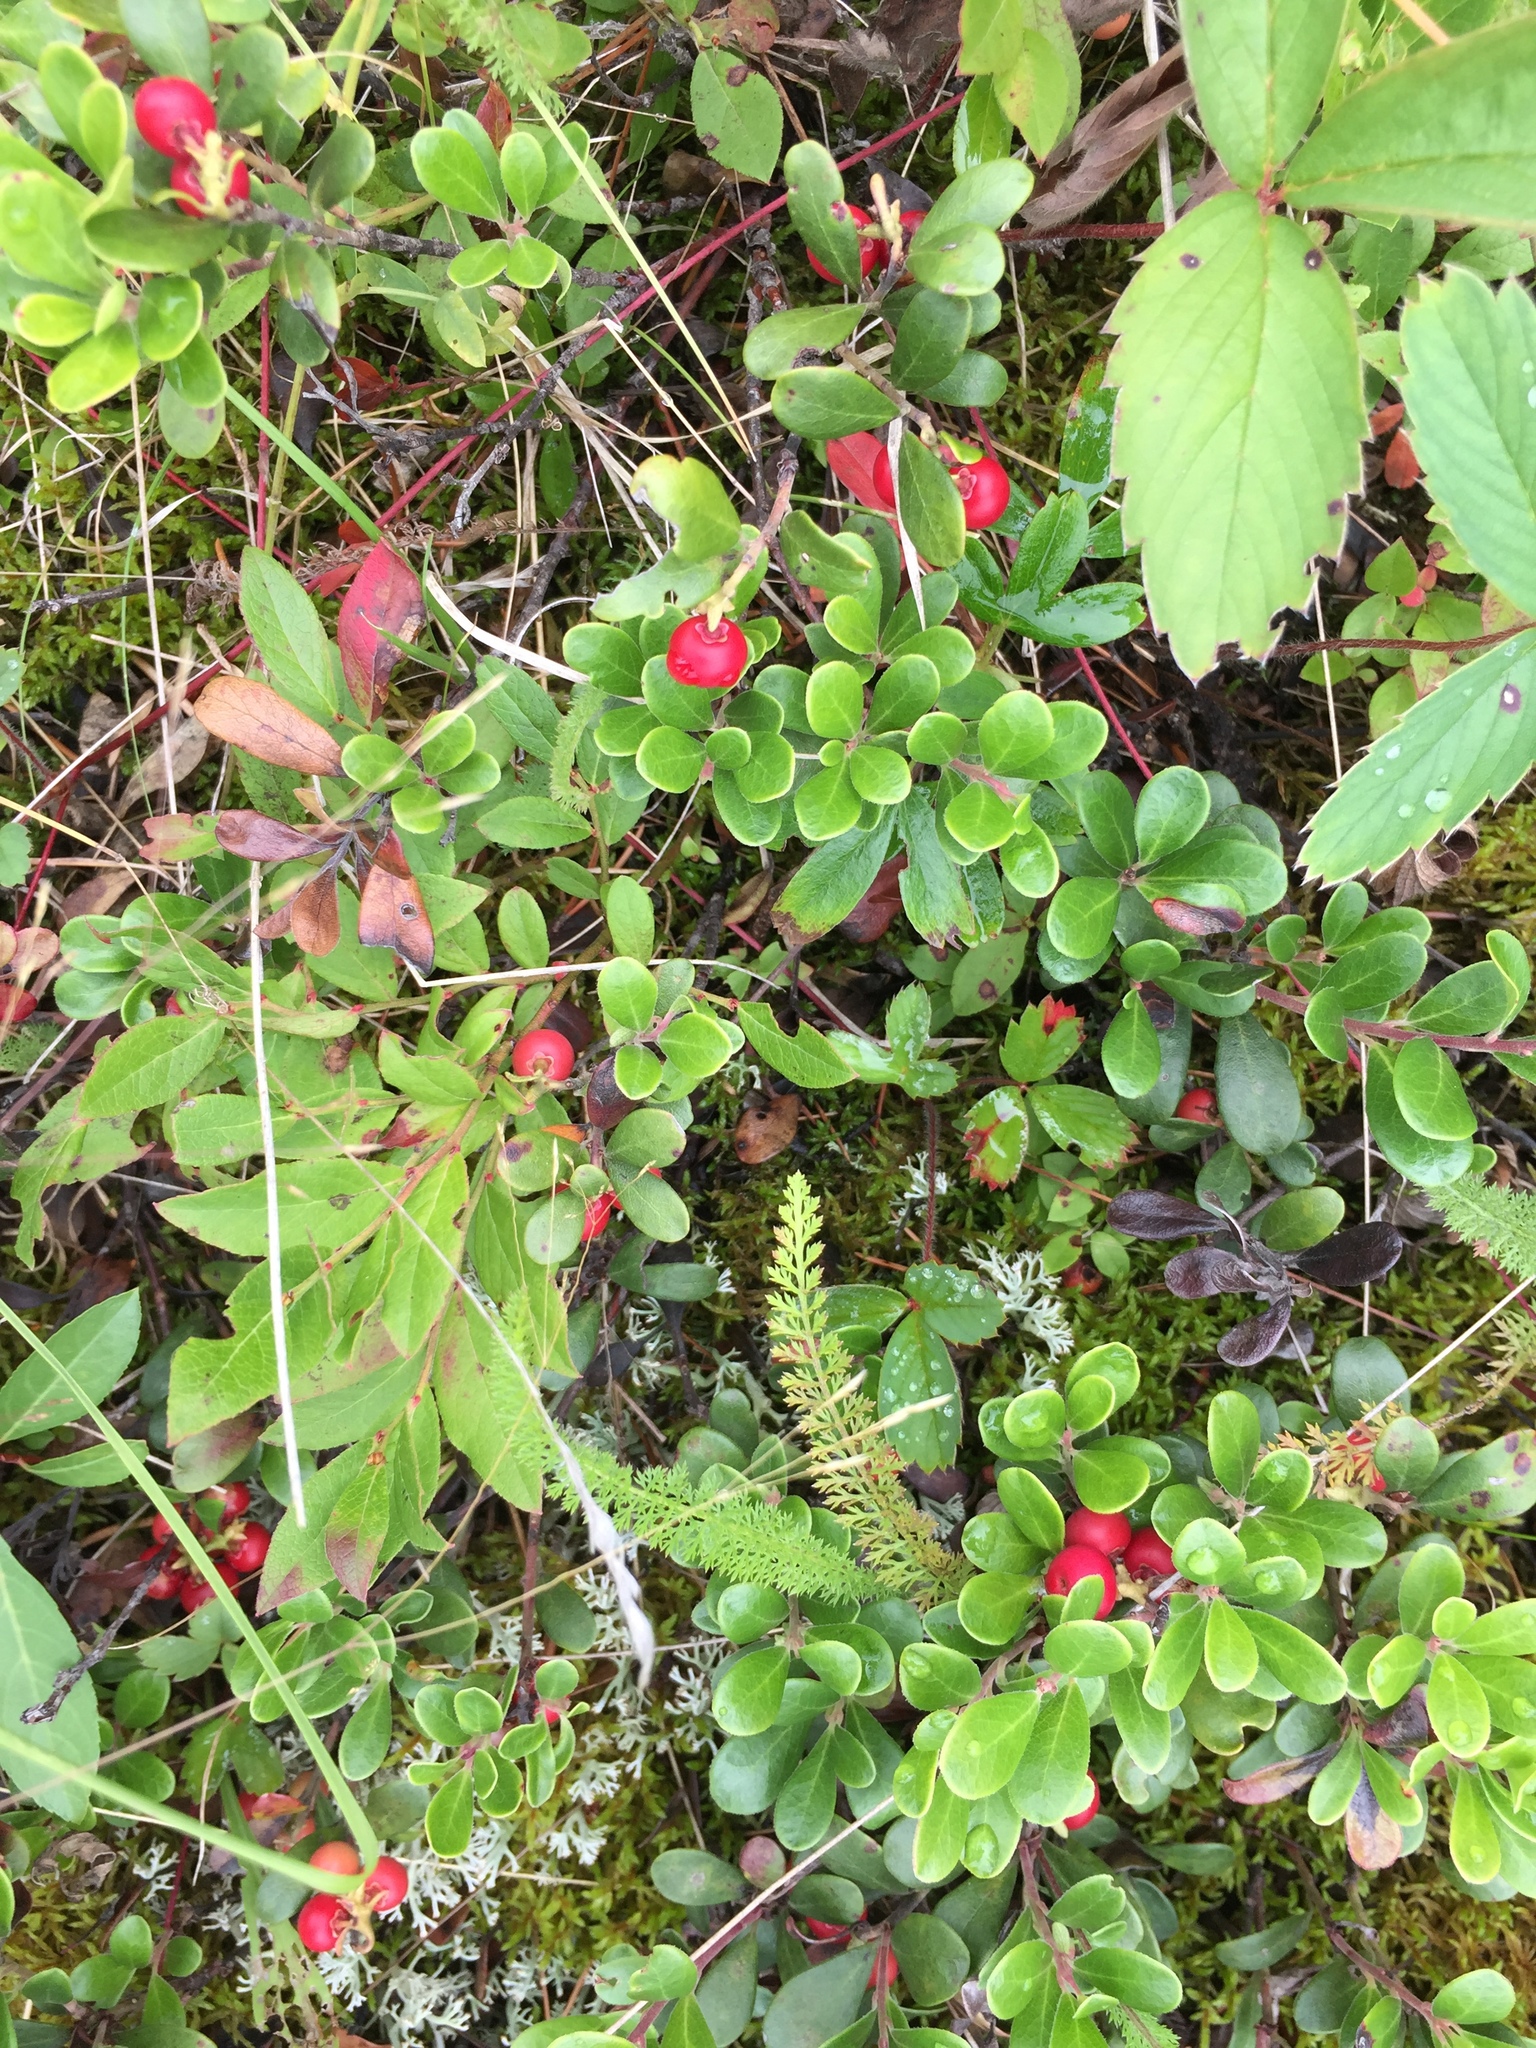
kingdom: Plantae
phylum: Tracheophyta
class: Magnoliopsida
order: Ericales
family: Ericaceae
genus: Arctostaphylos
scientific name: Arctostaphylos uva-ursi
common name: Bearberry
